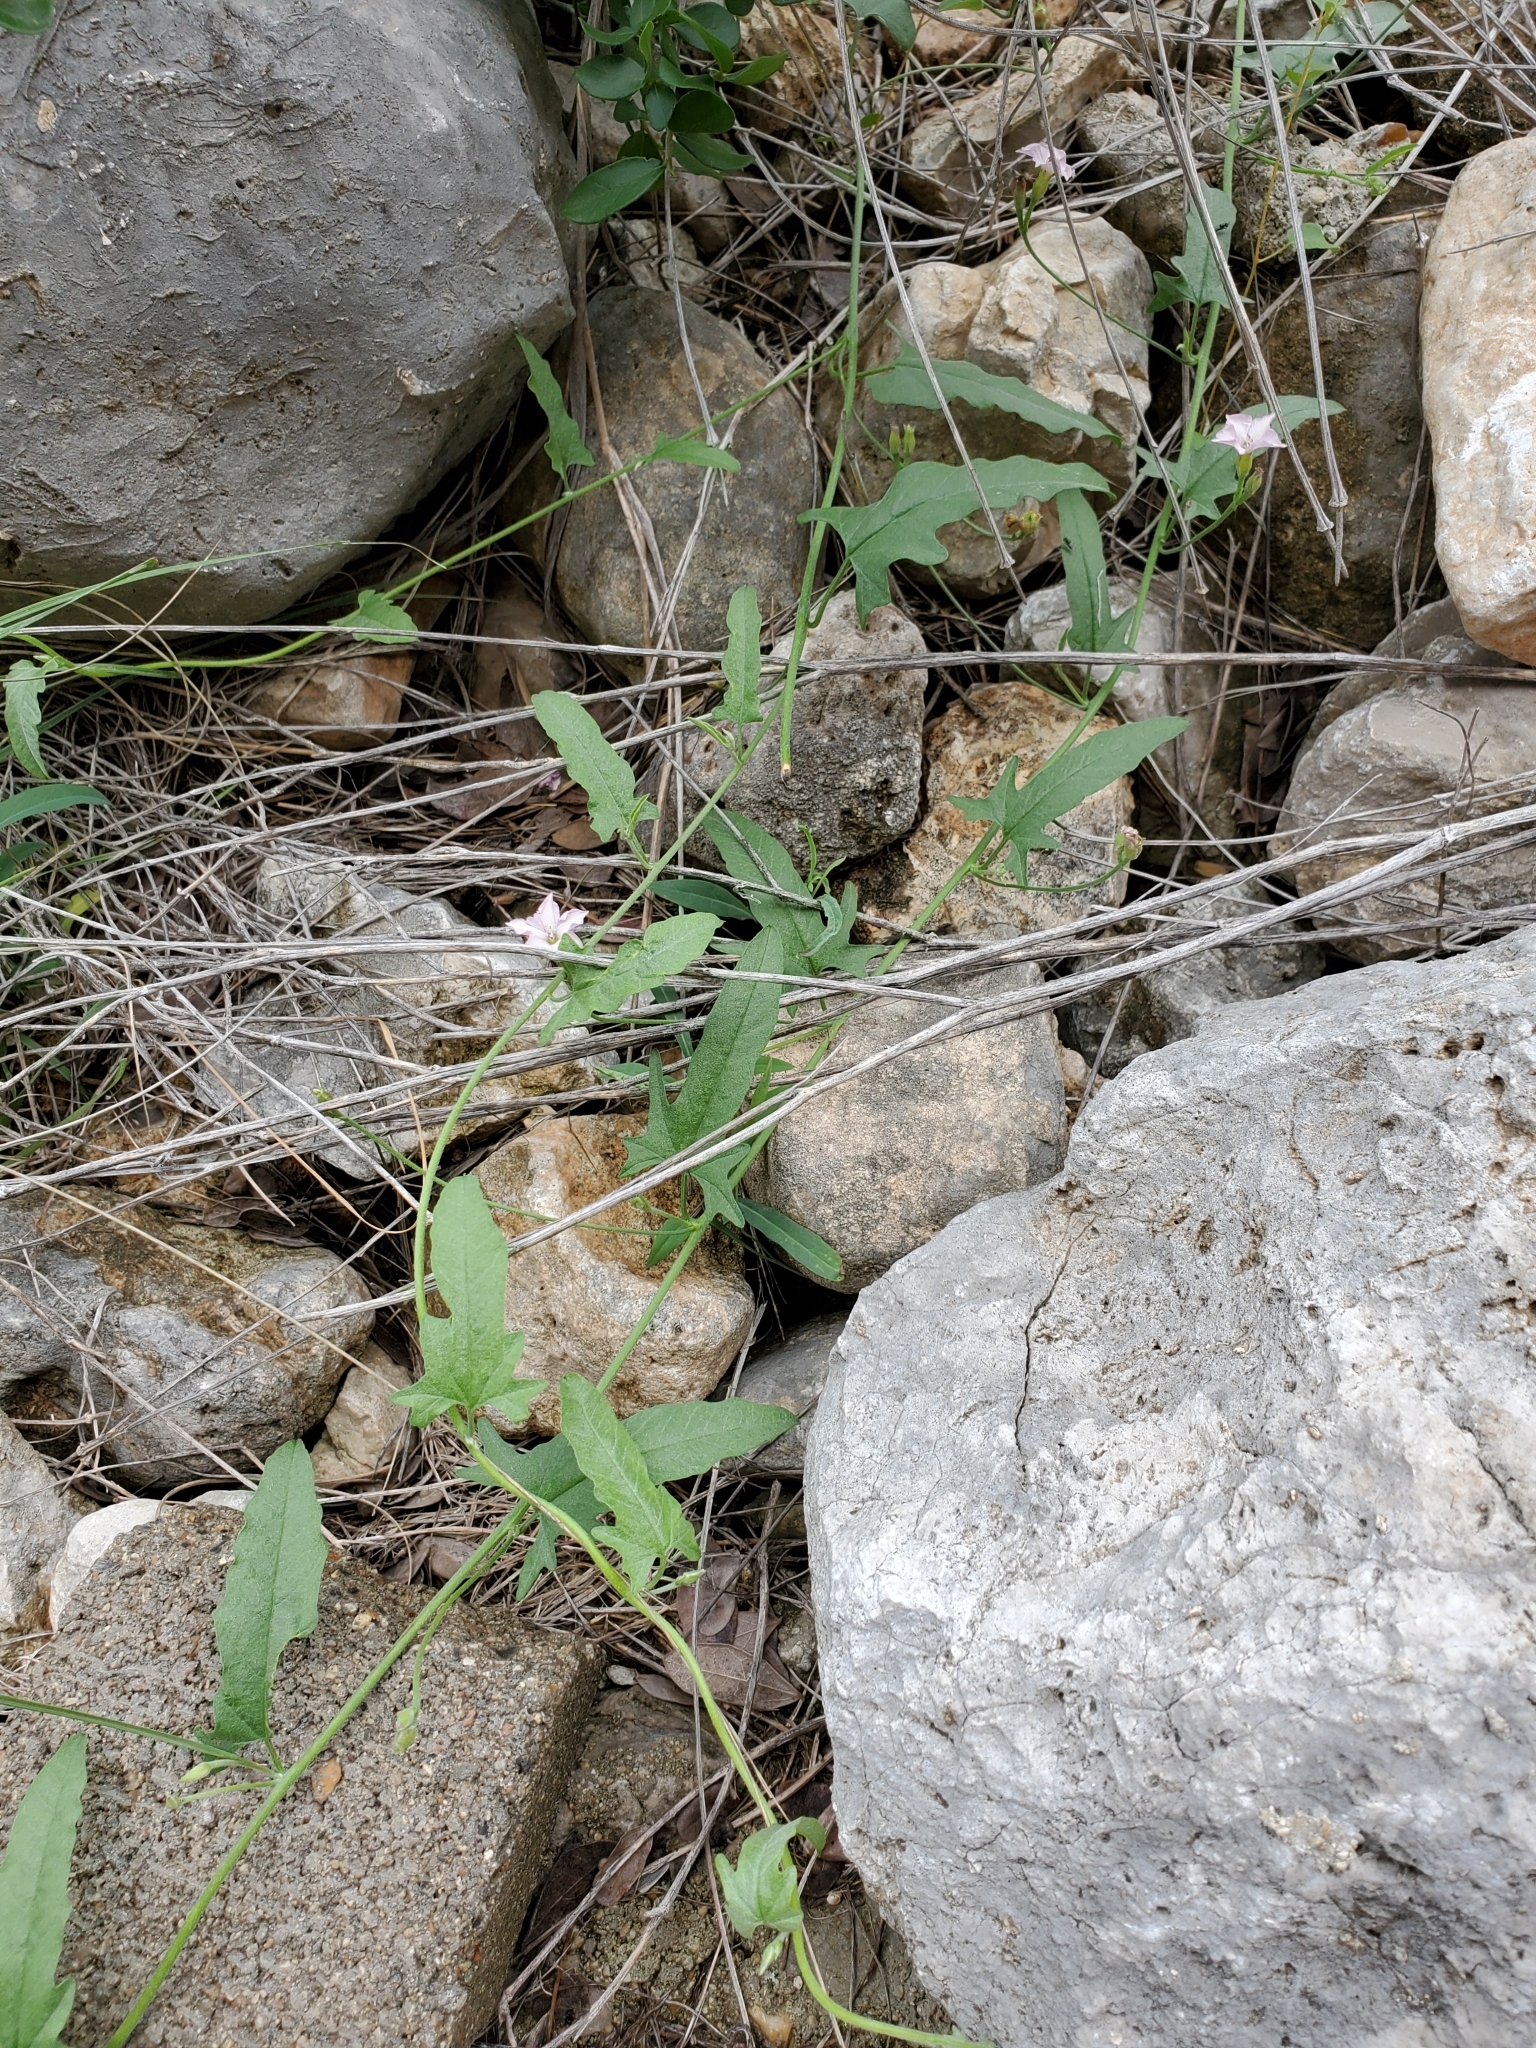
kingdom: Plantae
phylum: Tracheophyta
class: Magnoliopsida
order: Solanales
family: Convolvulaceae
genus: Convolvulus
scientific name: Convolvulus equitans
